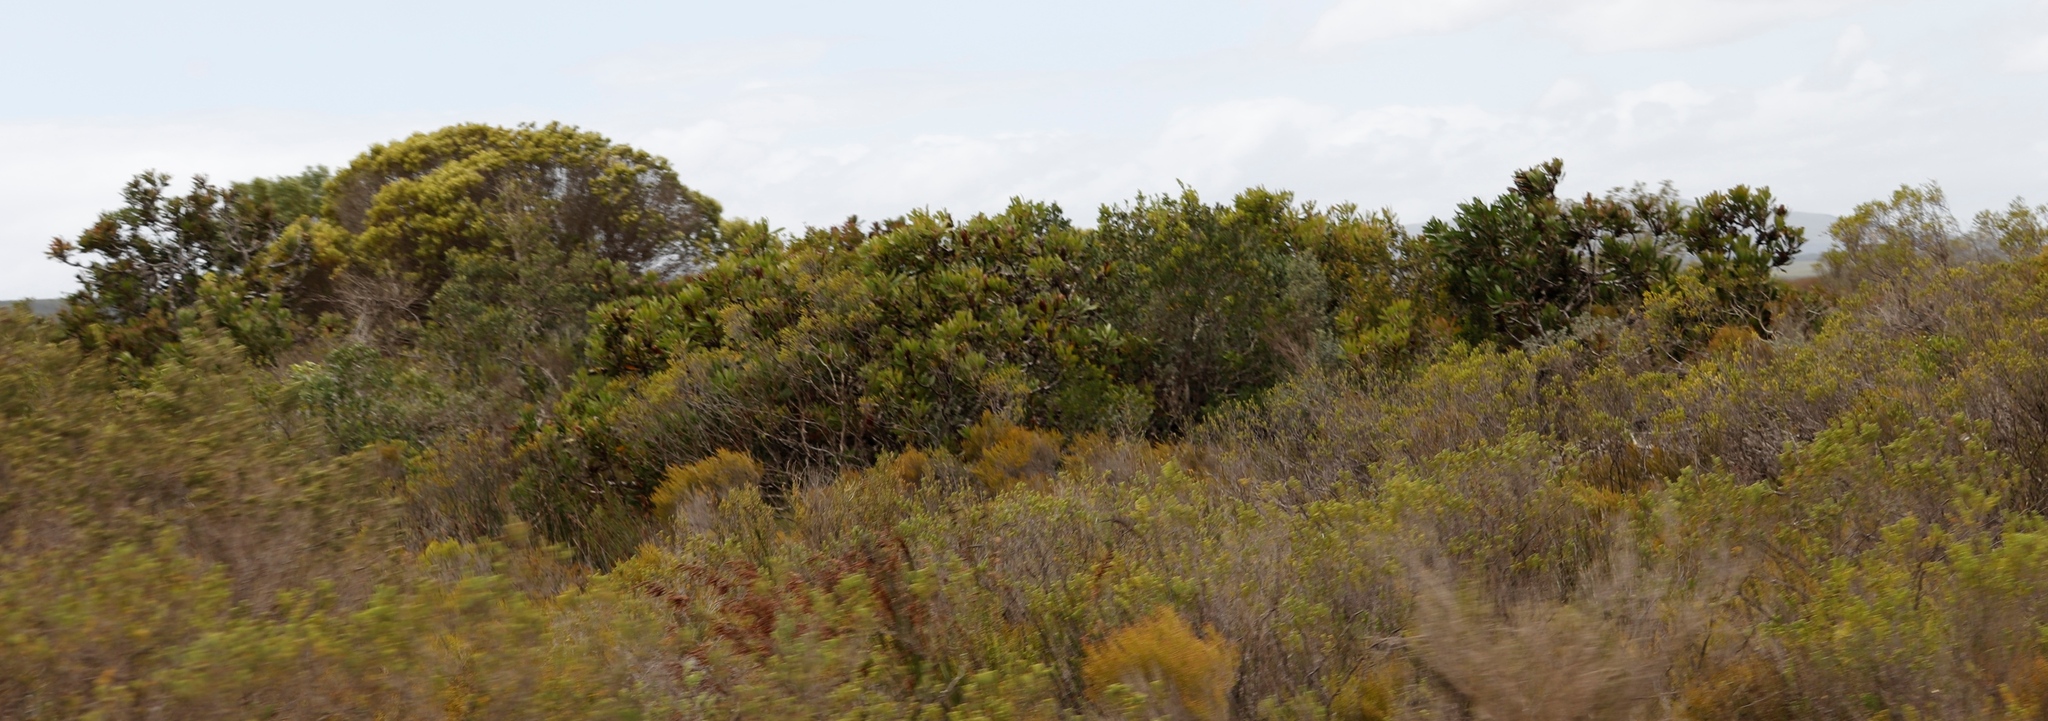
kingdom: Plantae
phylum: Tracheophyta
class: Magnoliopsida
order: Proteales
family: Proteaceae
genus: Protea
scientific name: Protea obtusifolia
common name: Bredasdorp sugarbush
